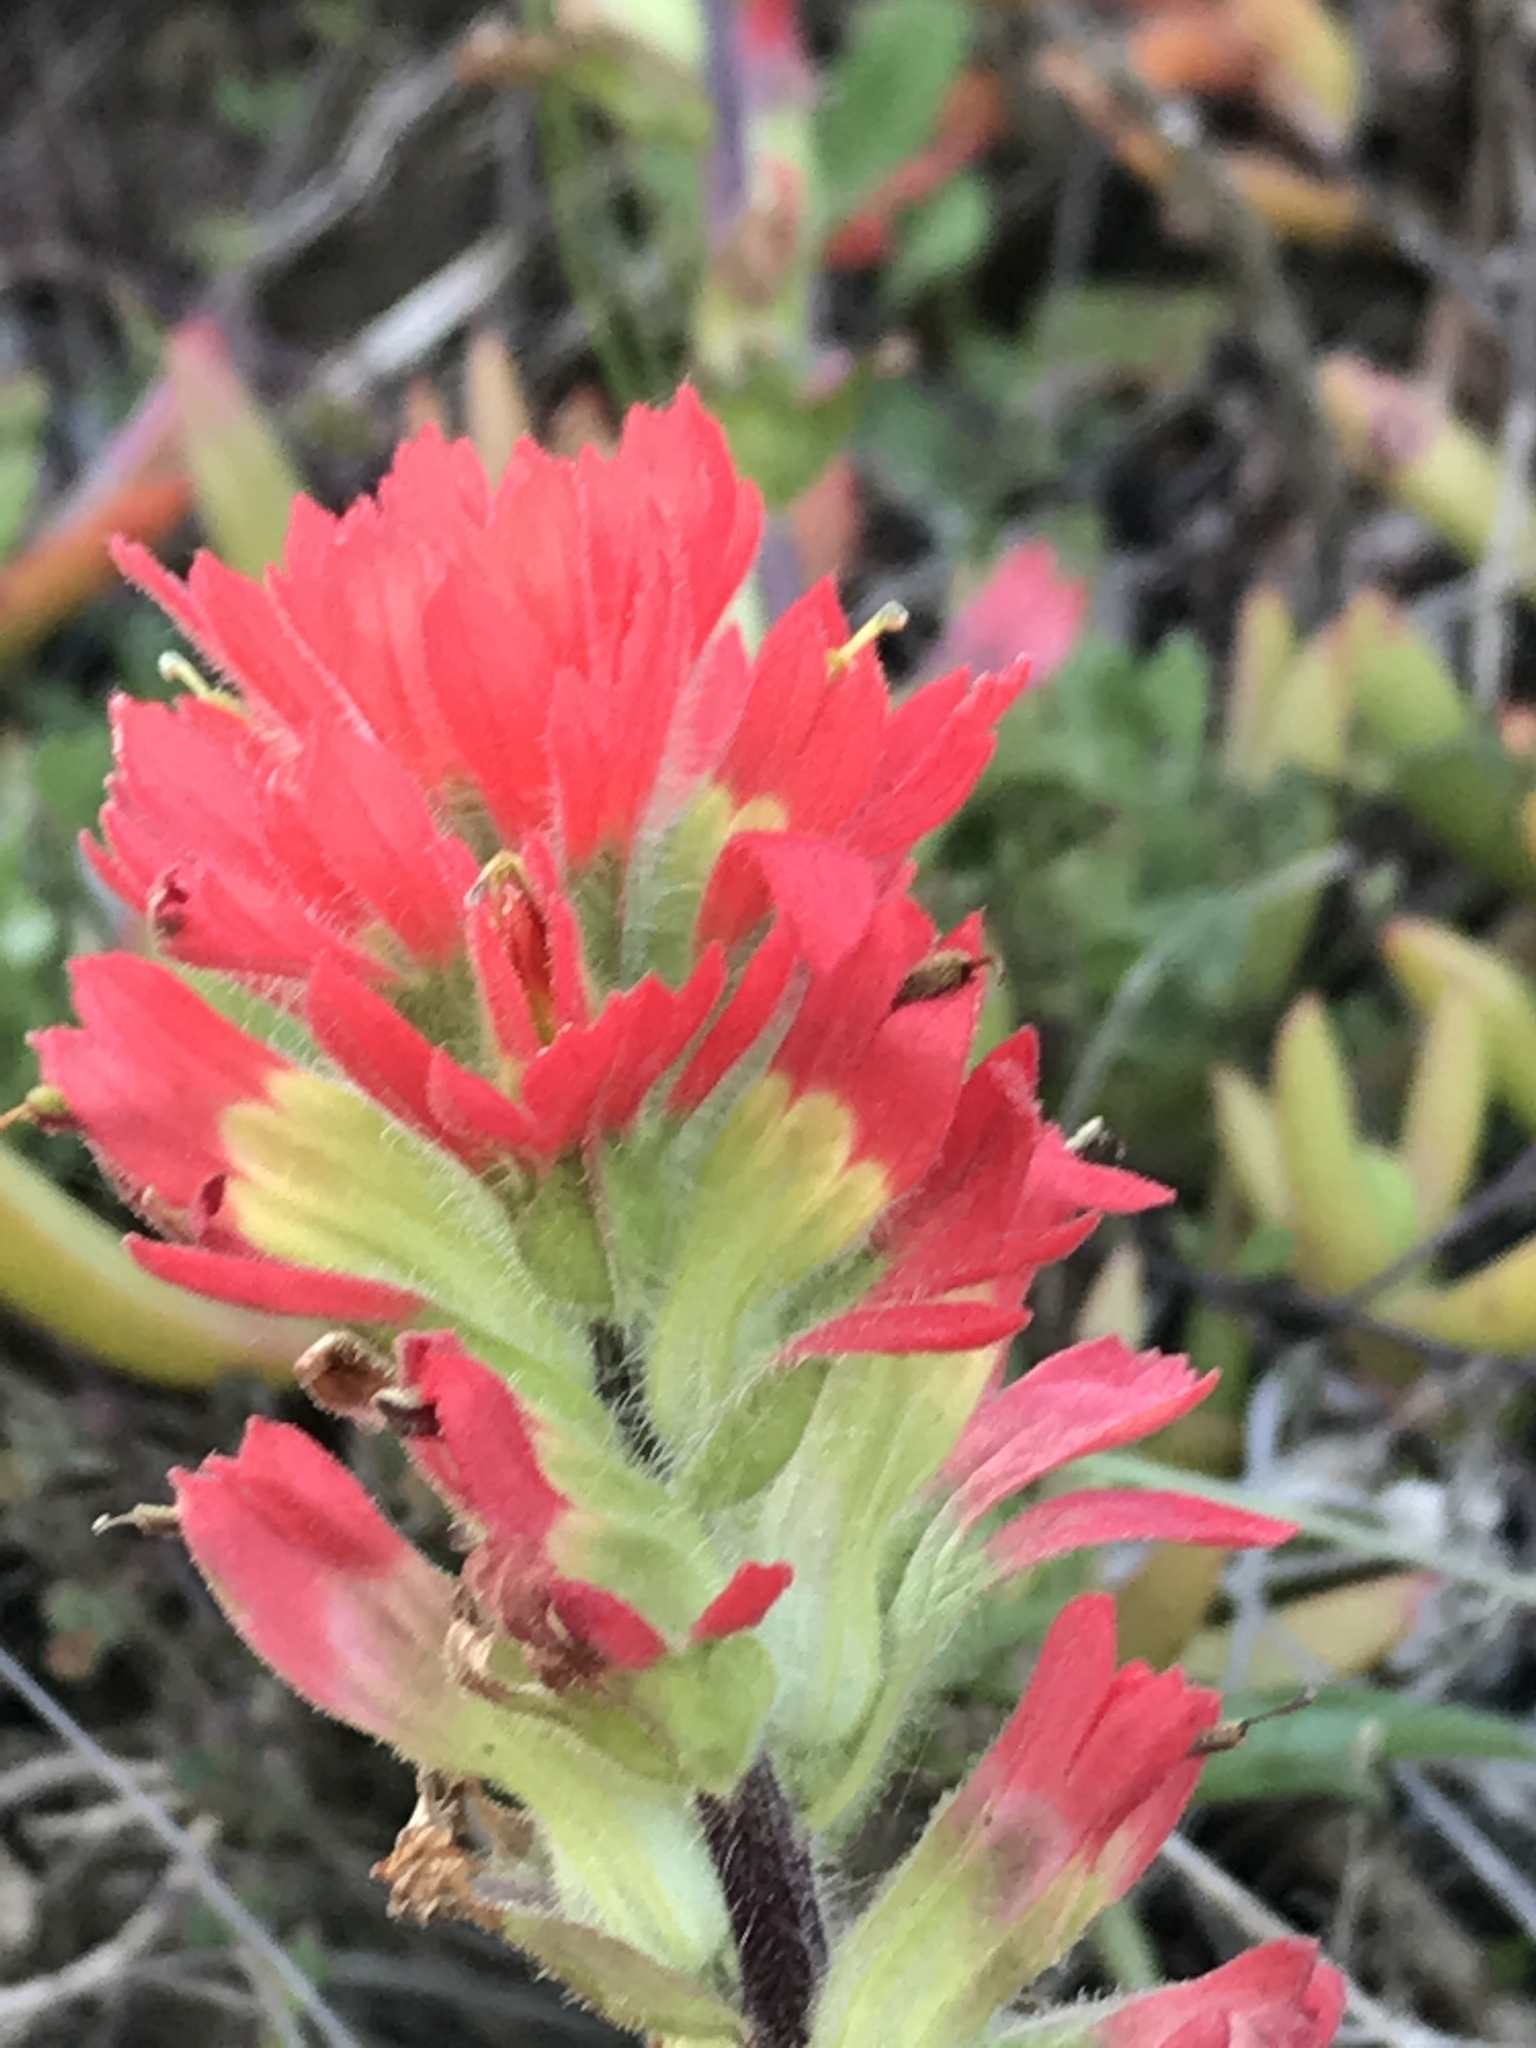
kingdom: Plantae
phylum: Tracheophyta
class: Magnoliopsida
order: Lamiales
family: Orobanchaceae
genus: Castilleja
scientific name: Castilleja affinis
